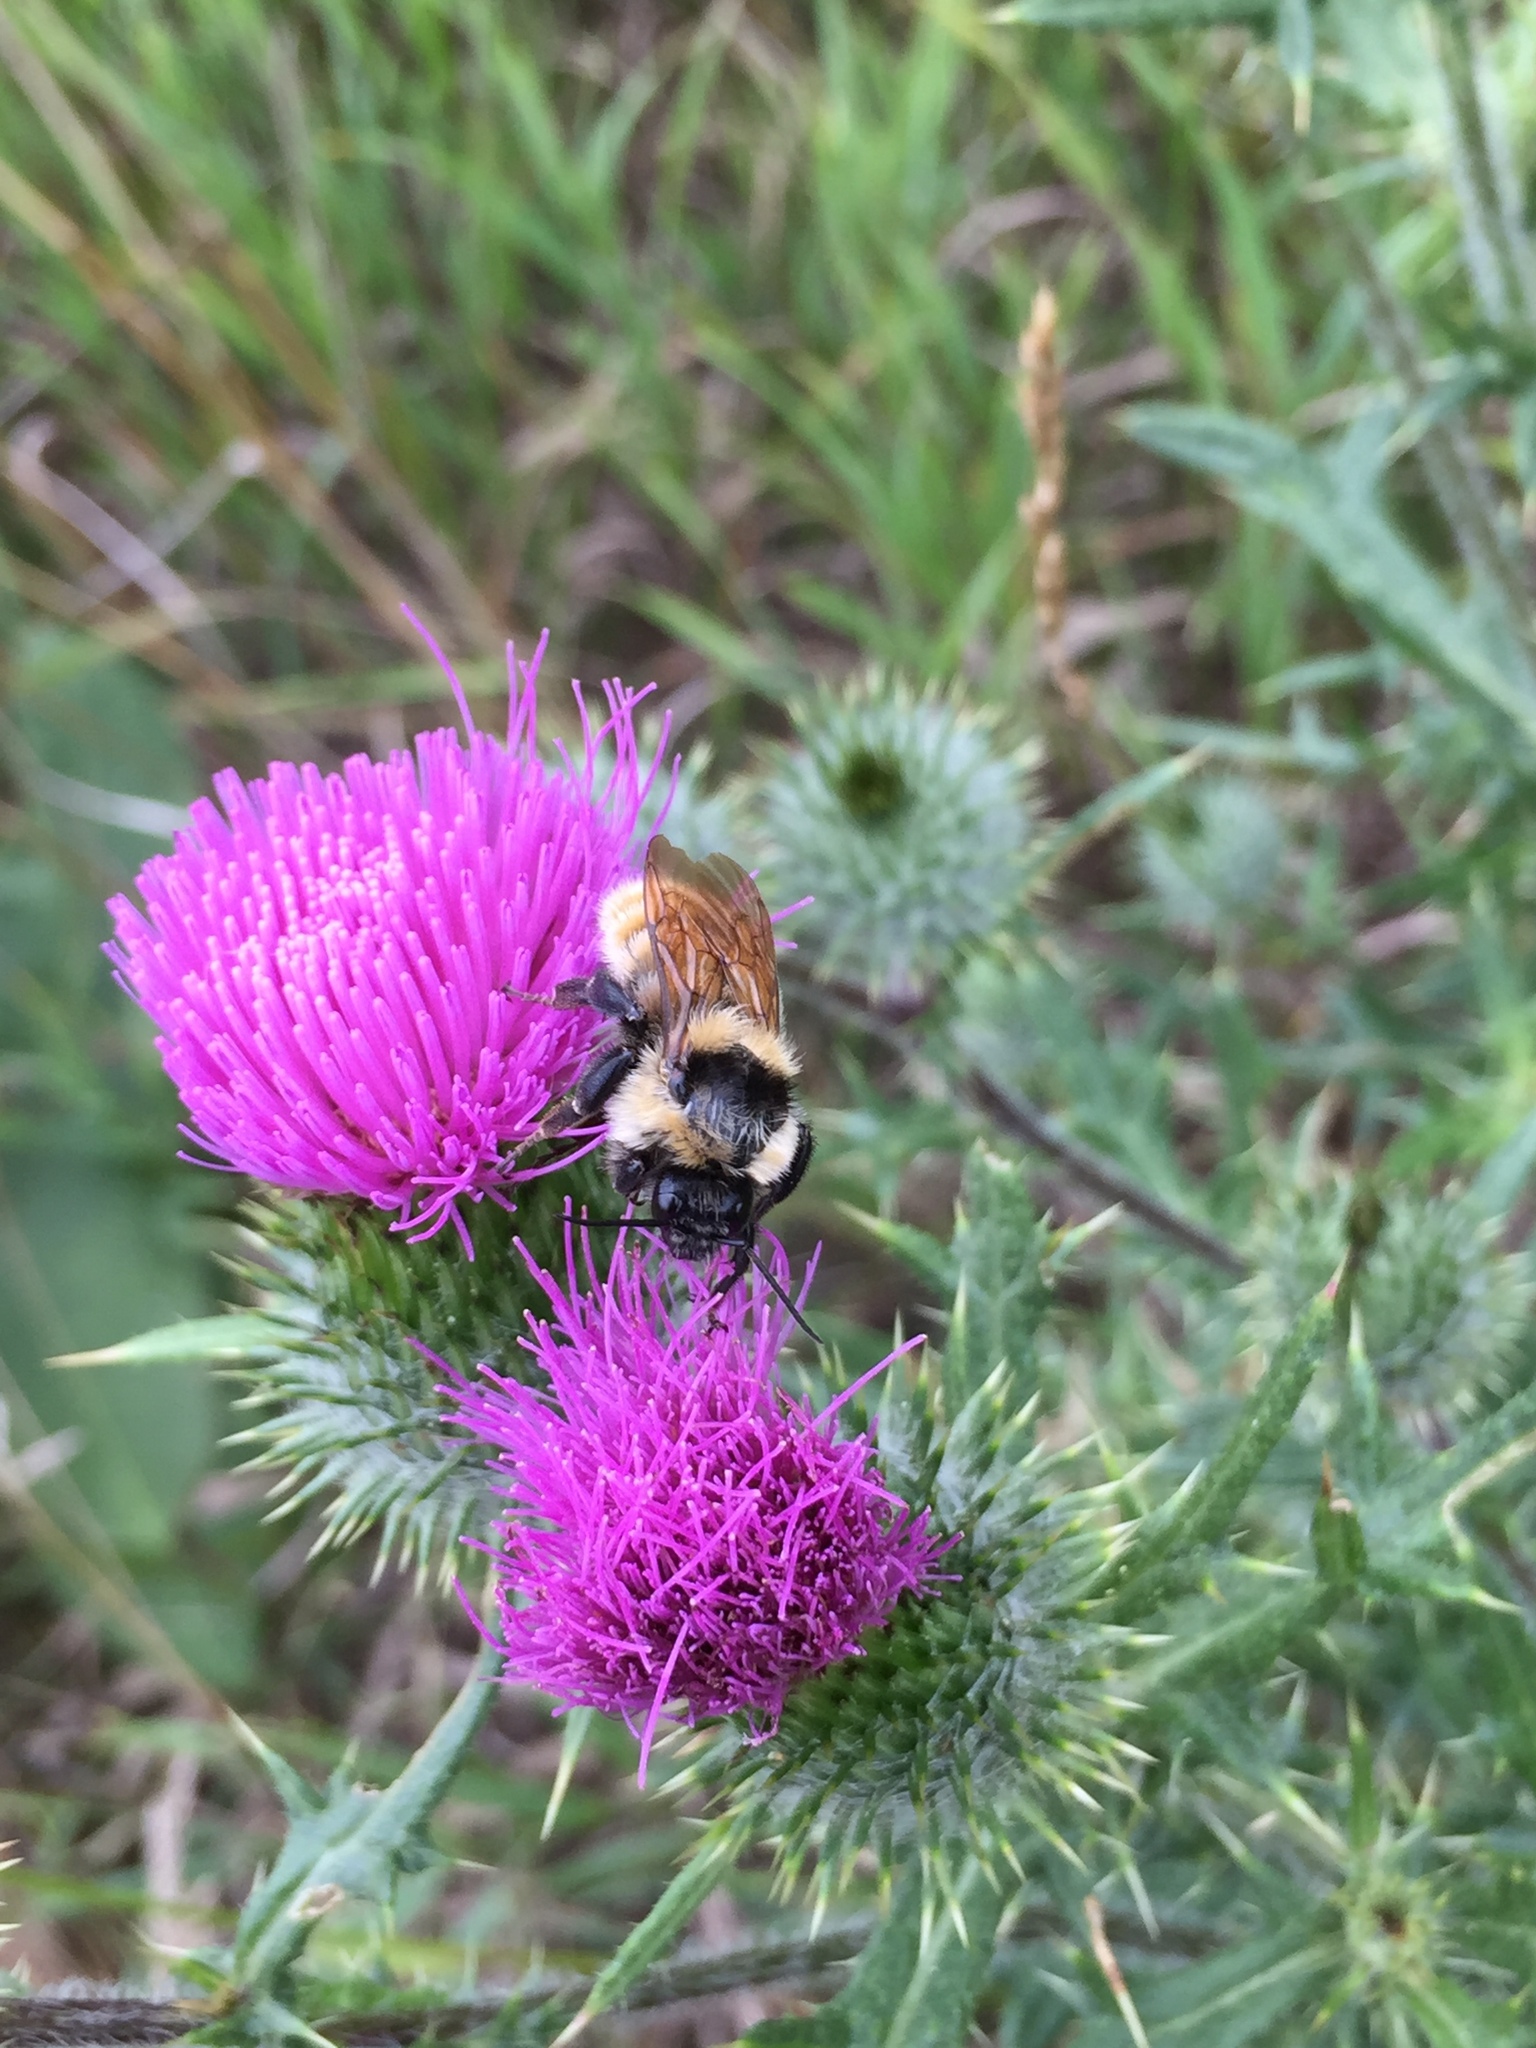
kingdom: Animalia
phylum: Arthropoda
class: Insecta
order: Hymenoptera
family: Apidae
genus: Bombus
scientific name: Bombus fervidus
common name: Yellow bumble bee
